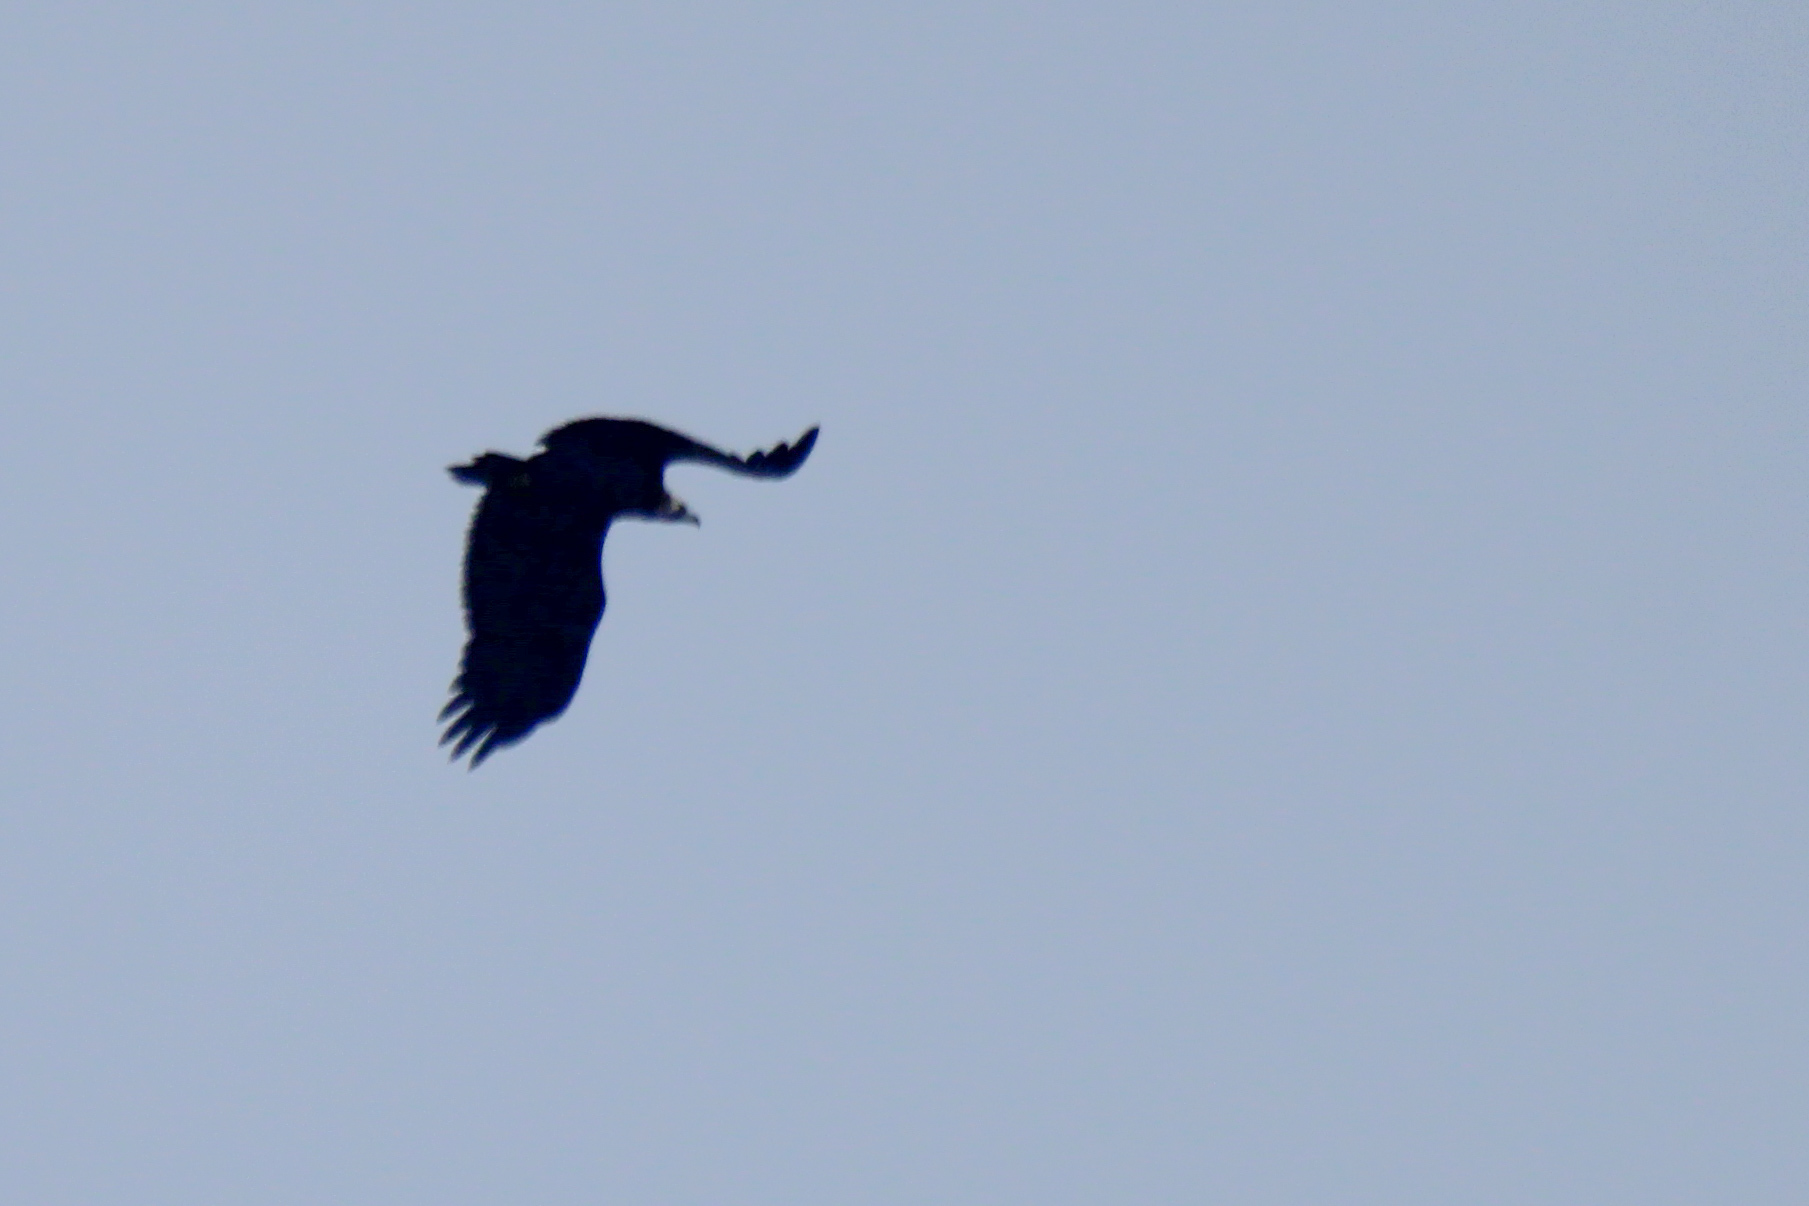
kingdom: Animalia
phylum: Chordata
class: Aves
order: Accipitriformes
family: Accipitridae
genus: Aegypius
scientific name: Aegypius monachus
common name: Cinereous vulture
